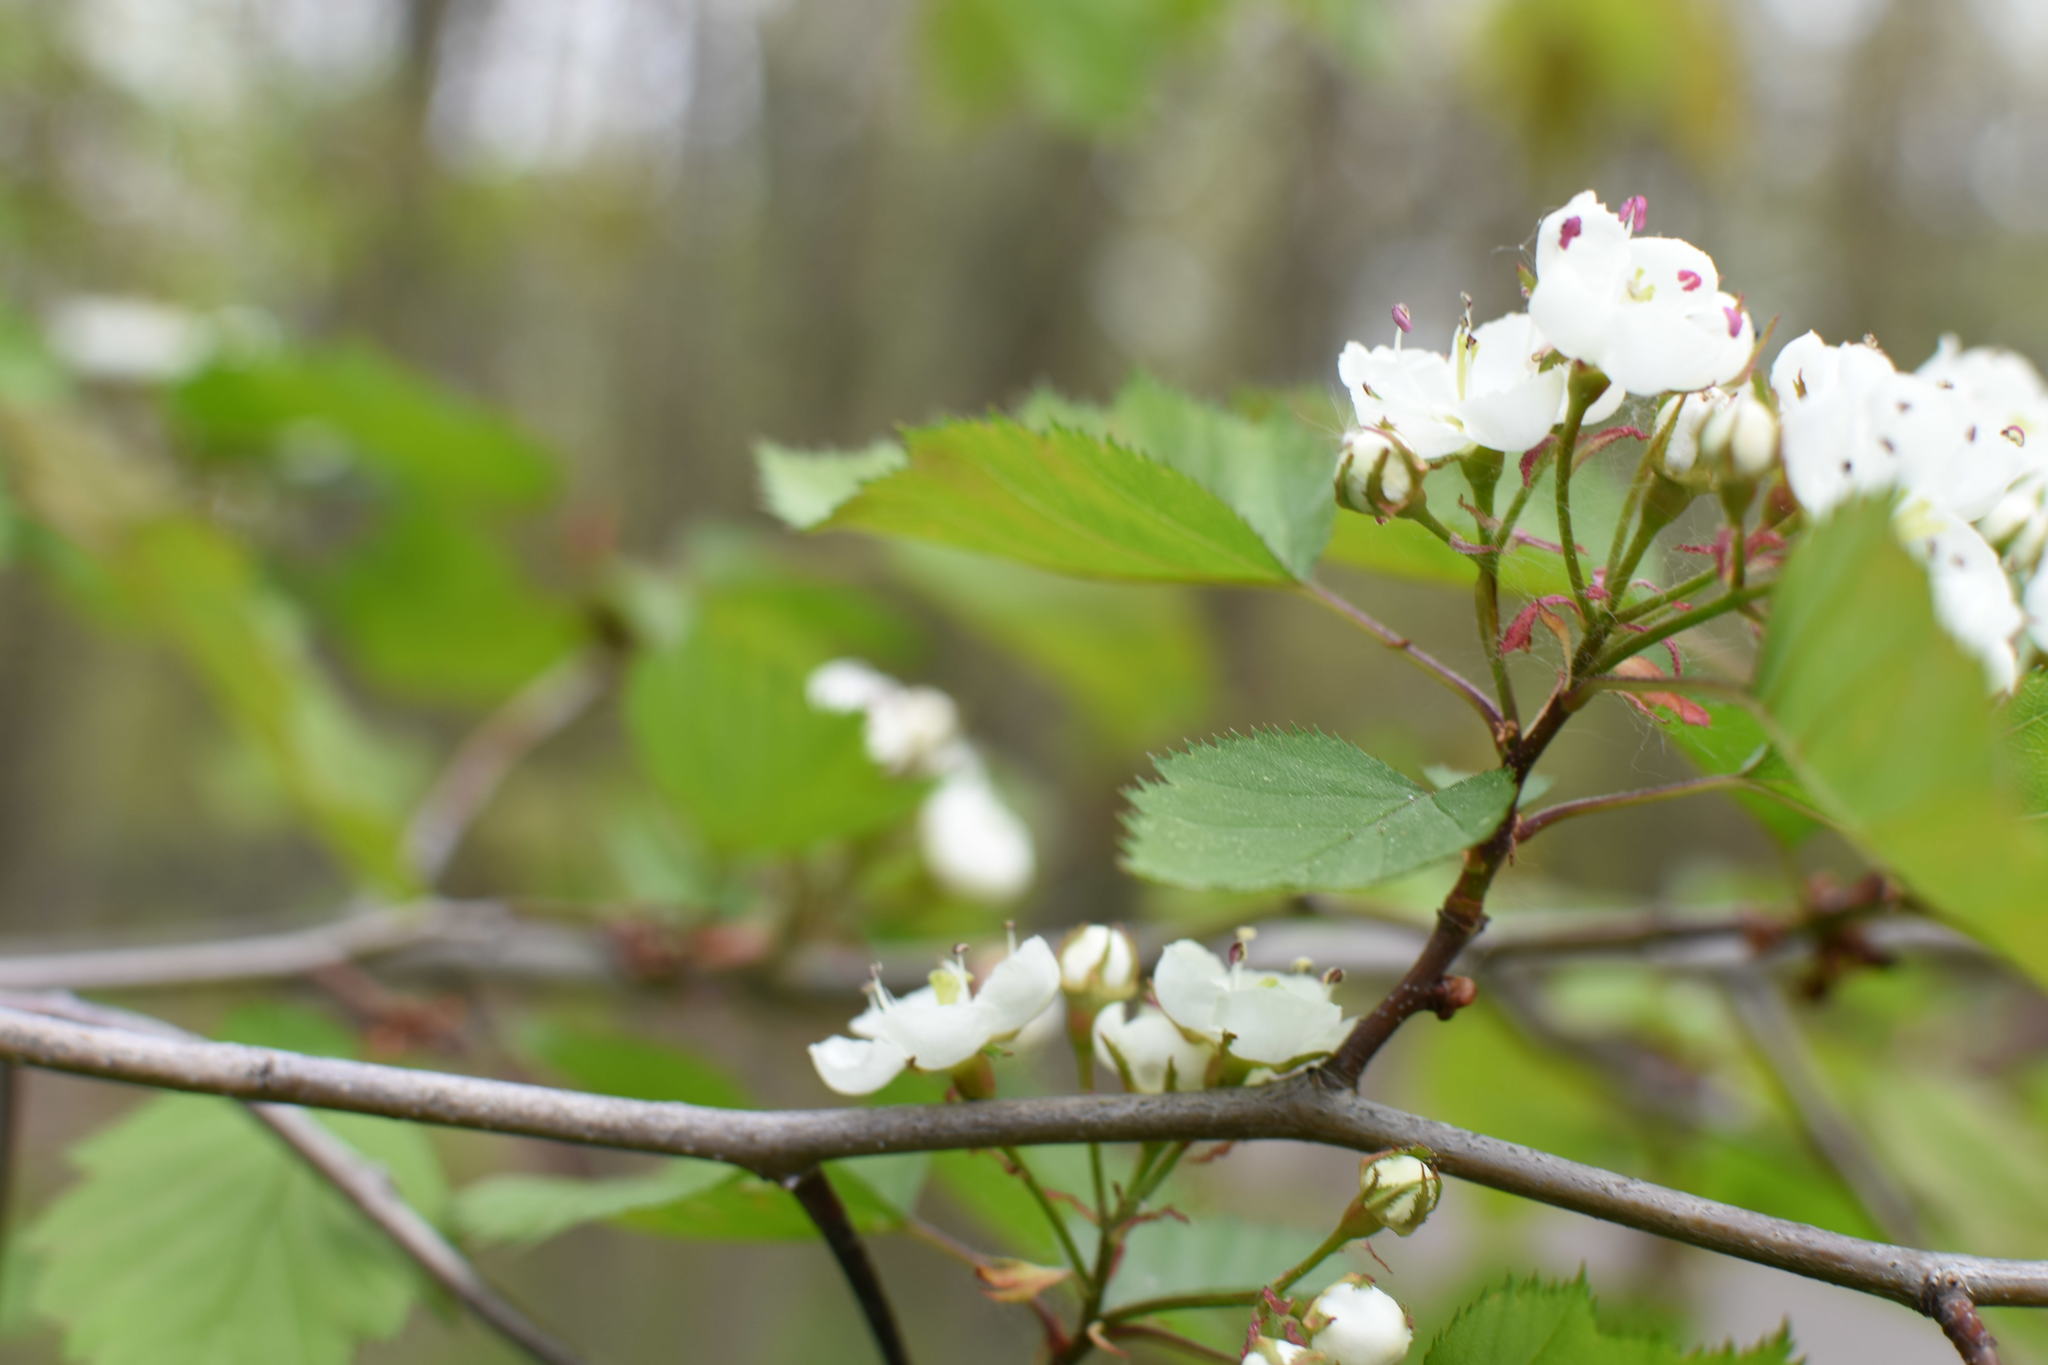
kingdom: Plantae
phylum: Tracheophyta
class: Magnoliopsida
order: Rosales
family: Rosaceae
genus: Crataegus
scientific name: Crataegus holmesiana
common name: Holmes' hawthorn
